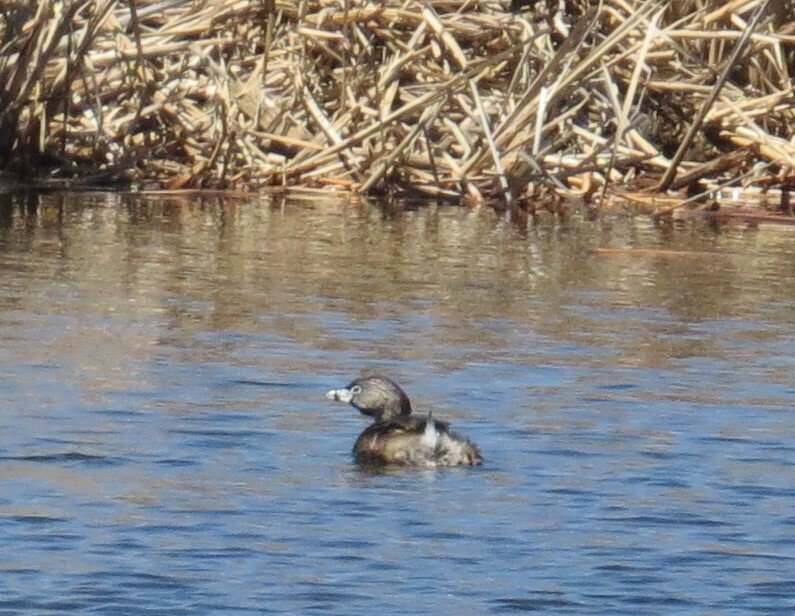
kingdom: Animalia
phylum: Chordata
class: Aves
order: Podicipediformes
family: Podicipedidae
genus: Podilymbus
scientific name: Podilymbus podiceps
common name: Pied-billed grebe
